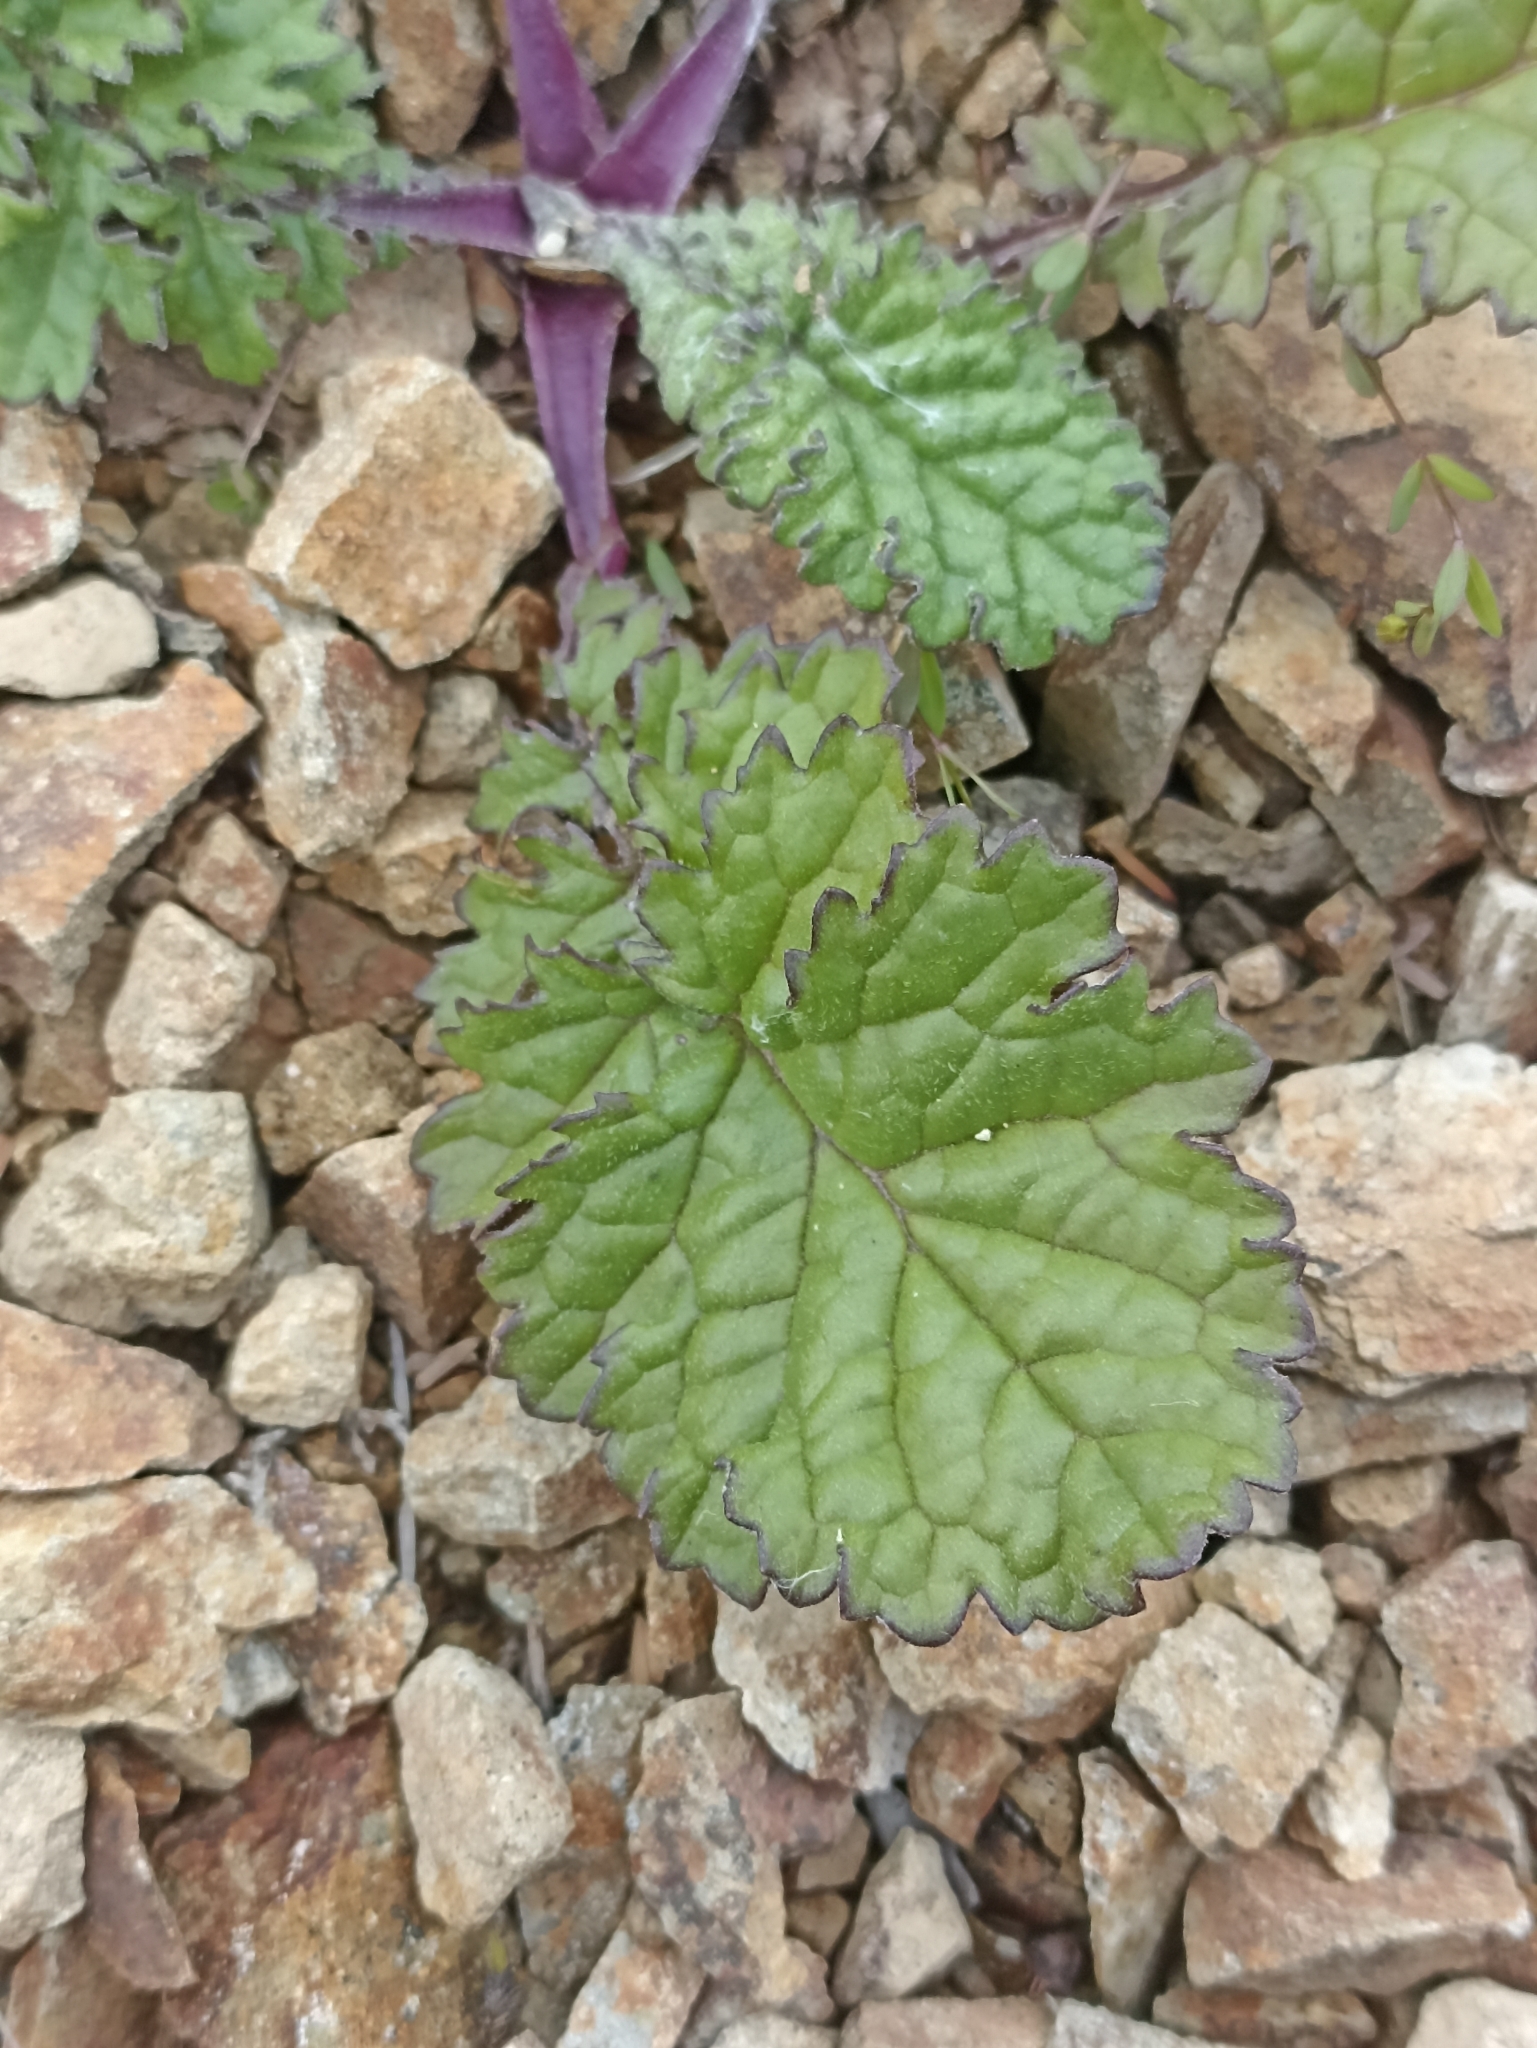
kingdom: Plantae
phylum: Tracheophyta
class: Magnoliopsida
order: Asterales
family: Asteraceae
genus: Jacobaea
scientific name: Jacobaea vulgaris
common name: Stinking willie
